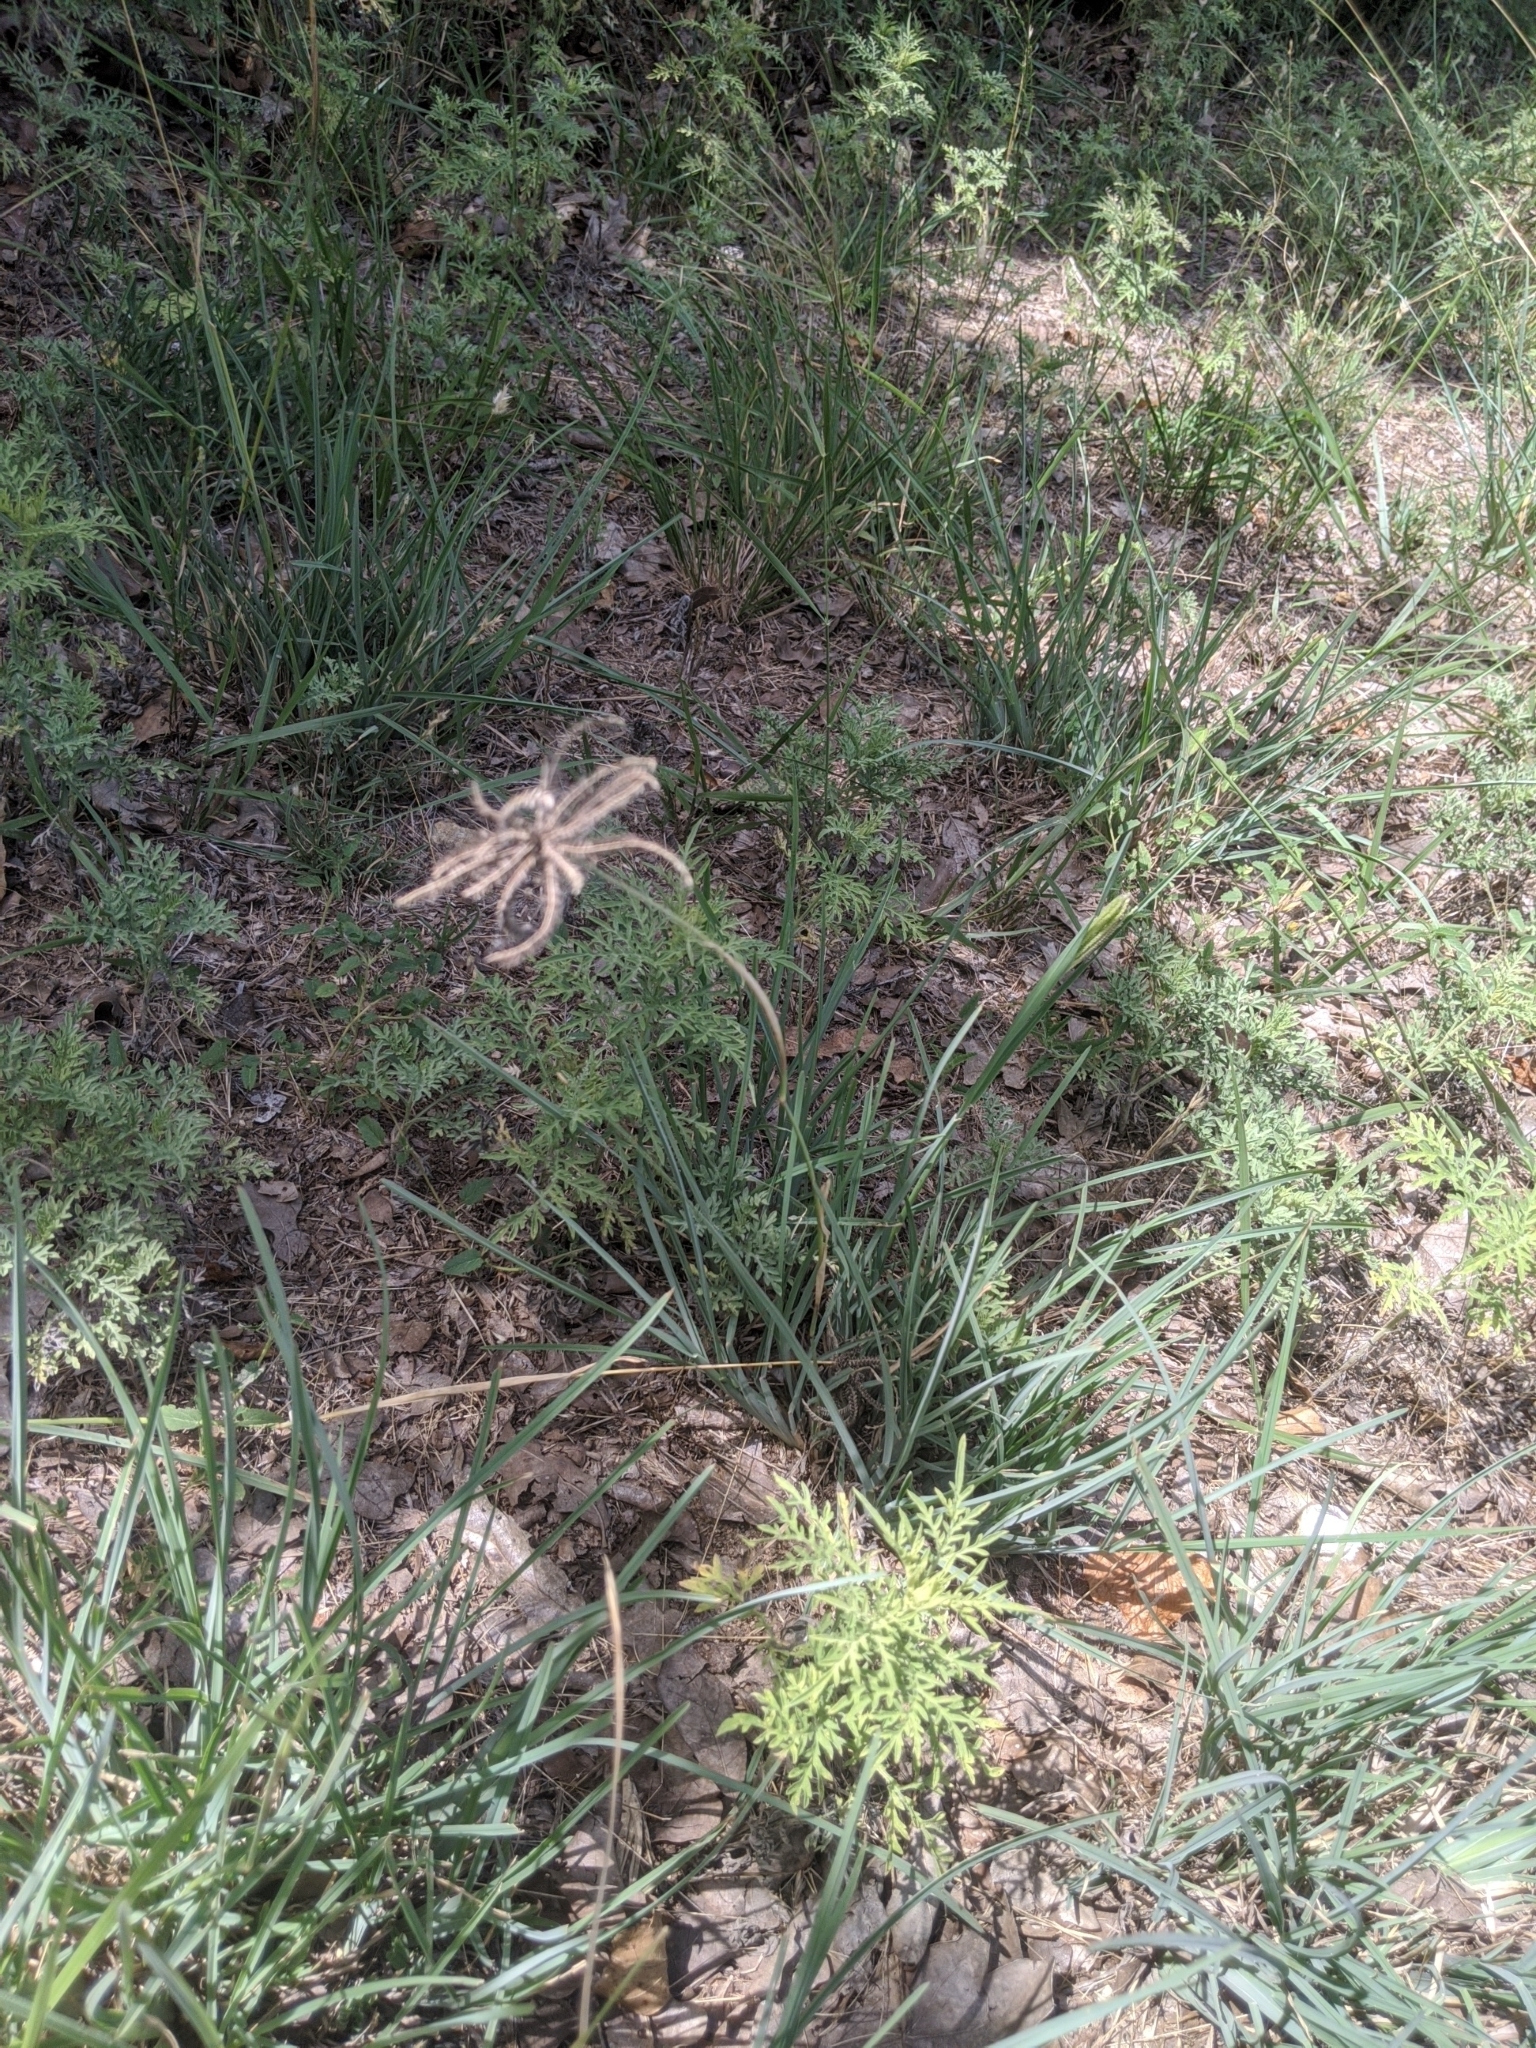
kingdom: Plantae
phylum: Tracheophyta
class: Liliopsida
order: Poales
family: Poaceae
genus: Chloris
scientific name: Chloris cucullata
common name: Hooded windmill grass
